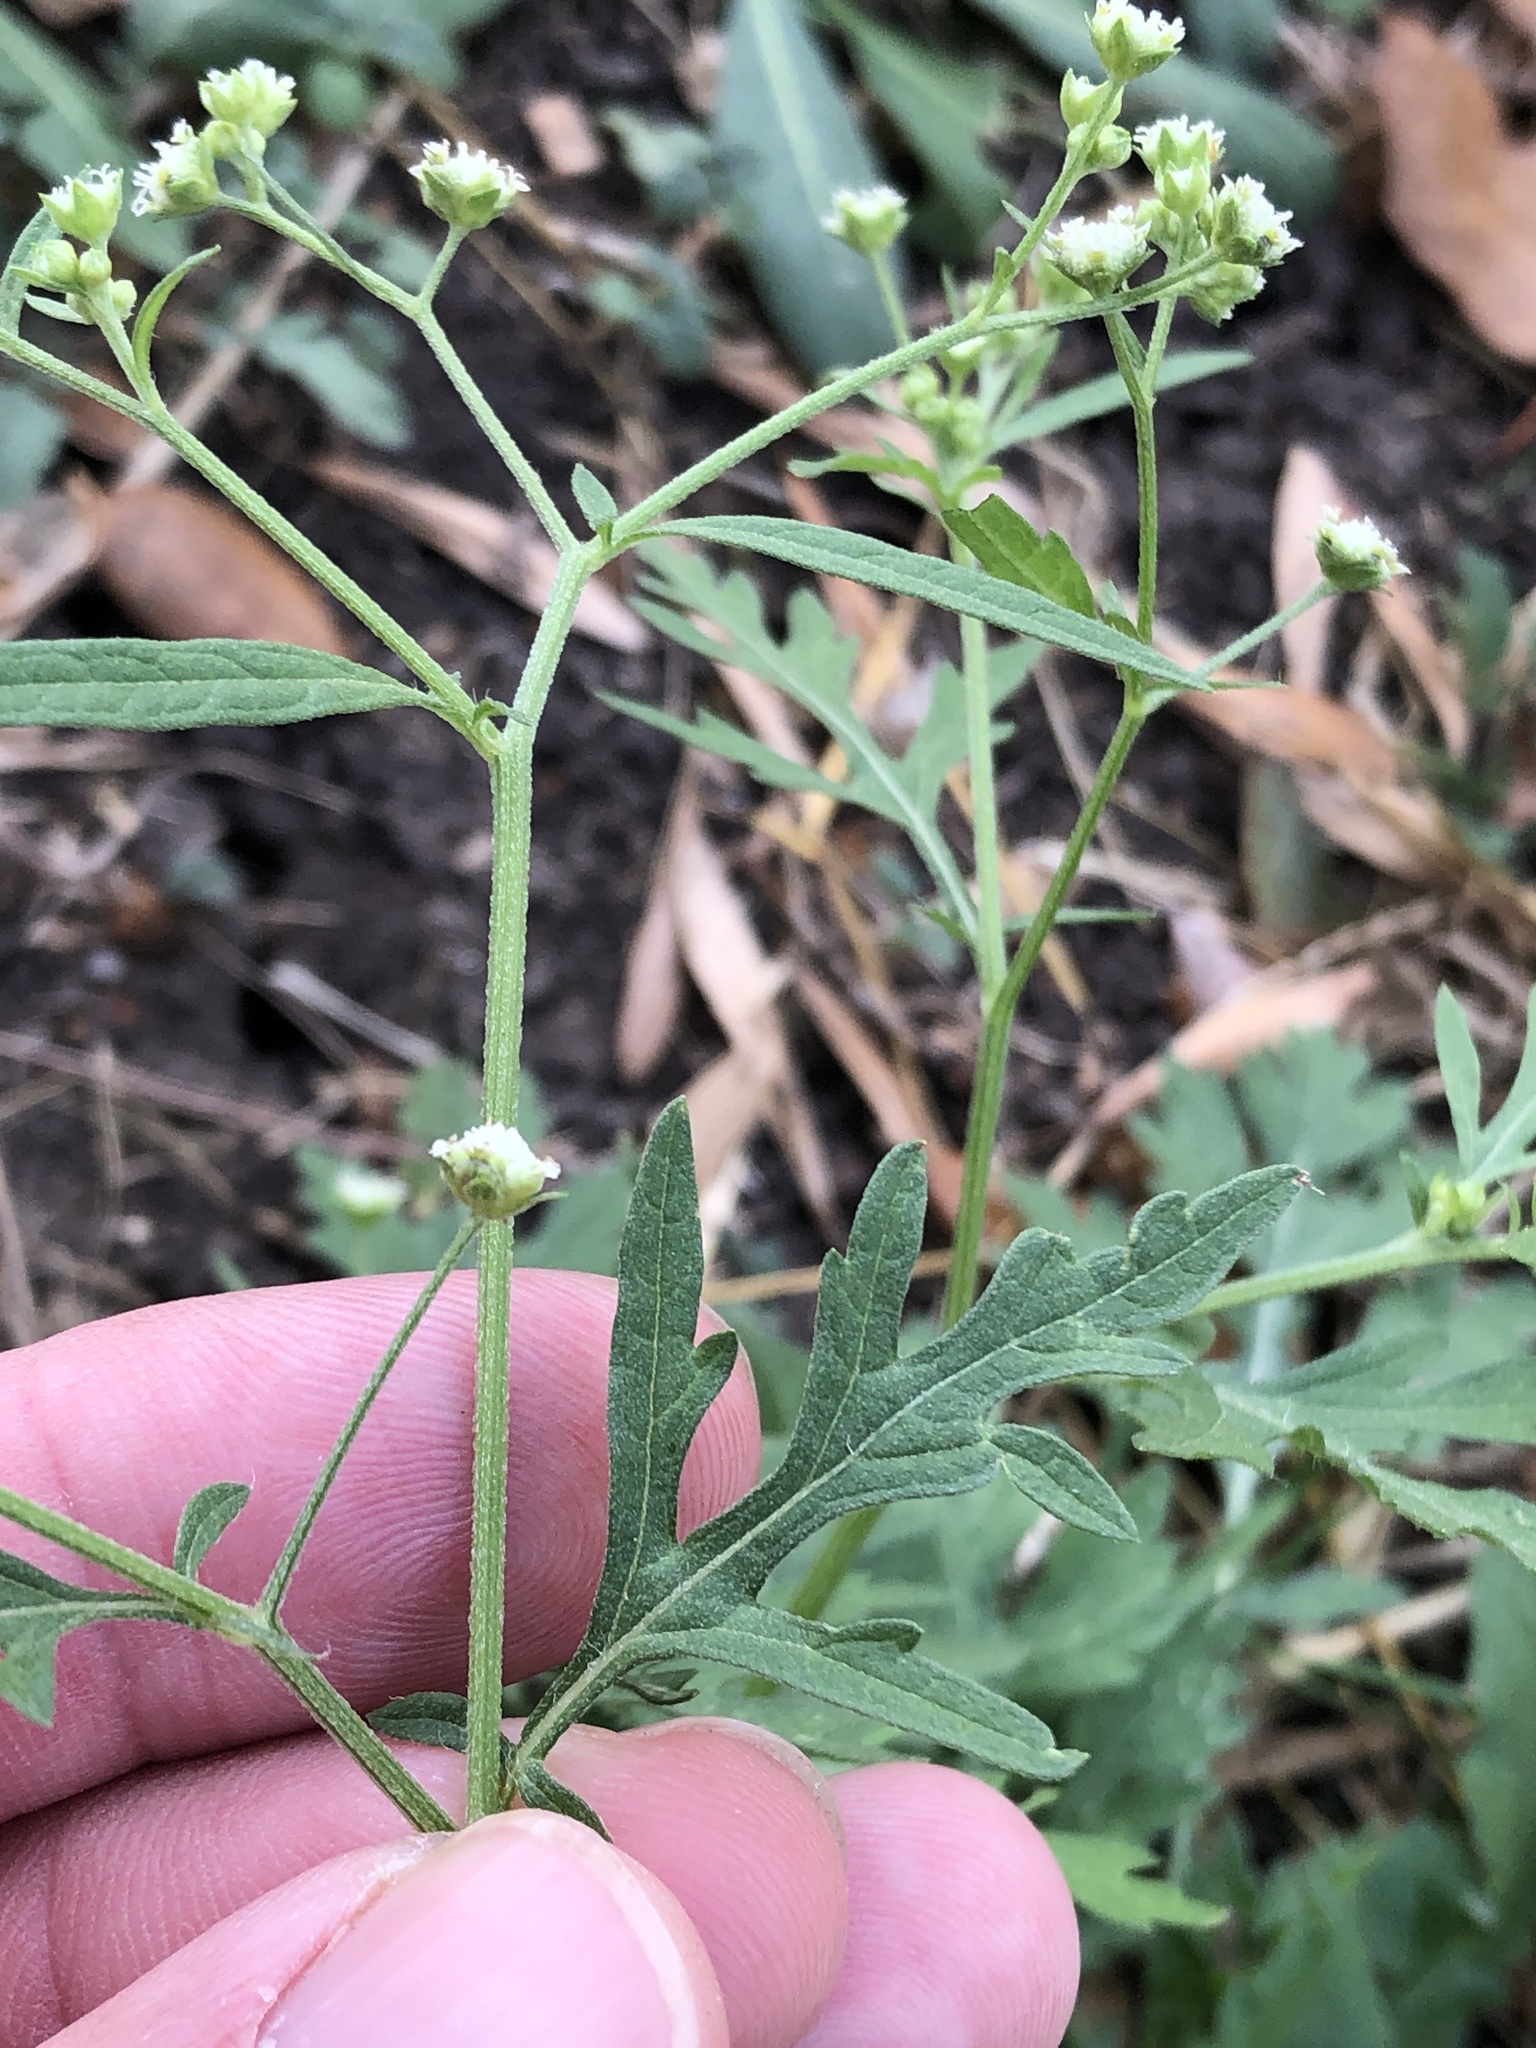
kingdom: Plantae
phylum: Tracheophyta
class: Magnoliopsida
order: Asterales
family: Asteraceae
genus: Parthenium
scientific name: Parthenium hysterophorus
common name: Santa maria feverfew
